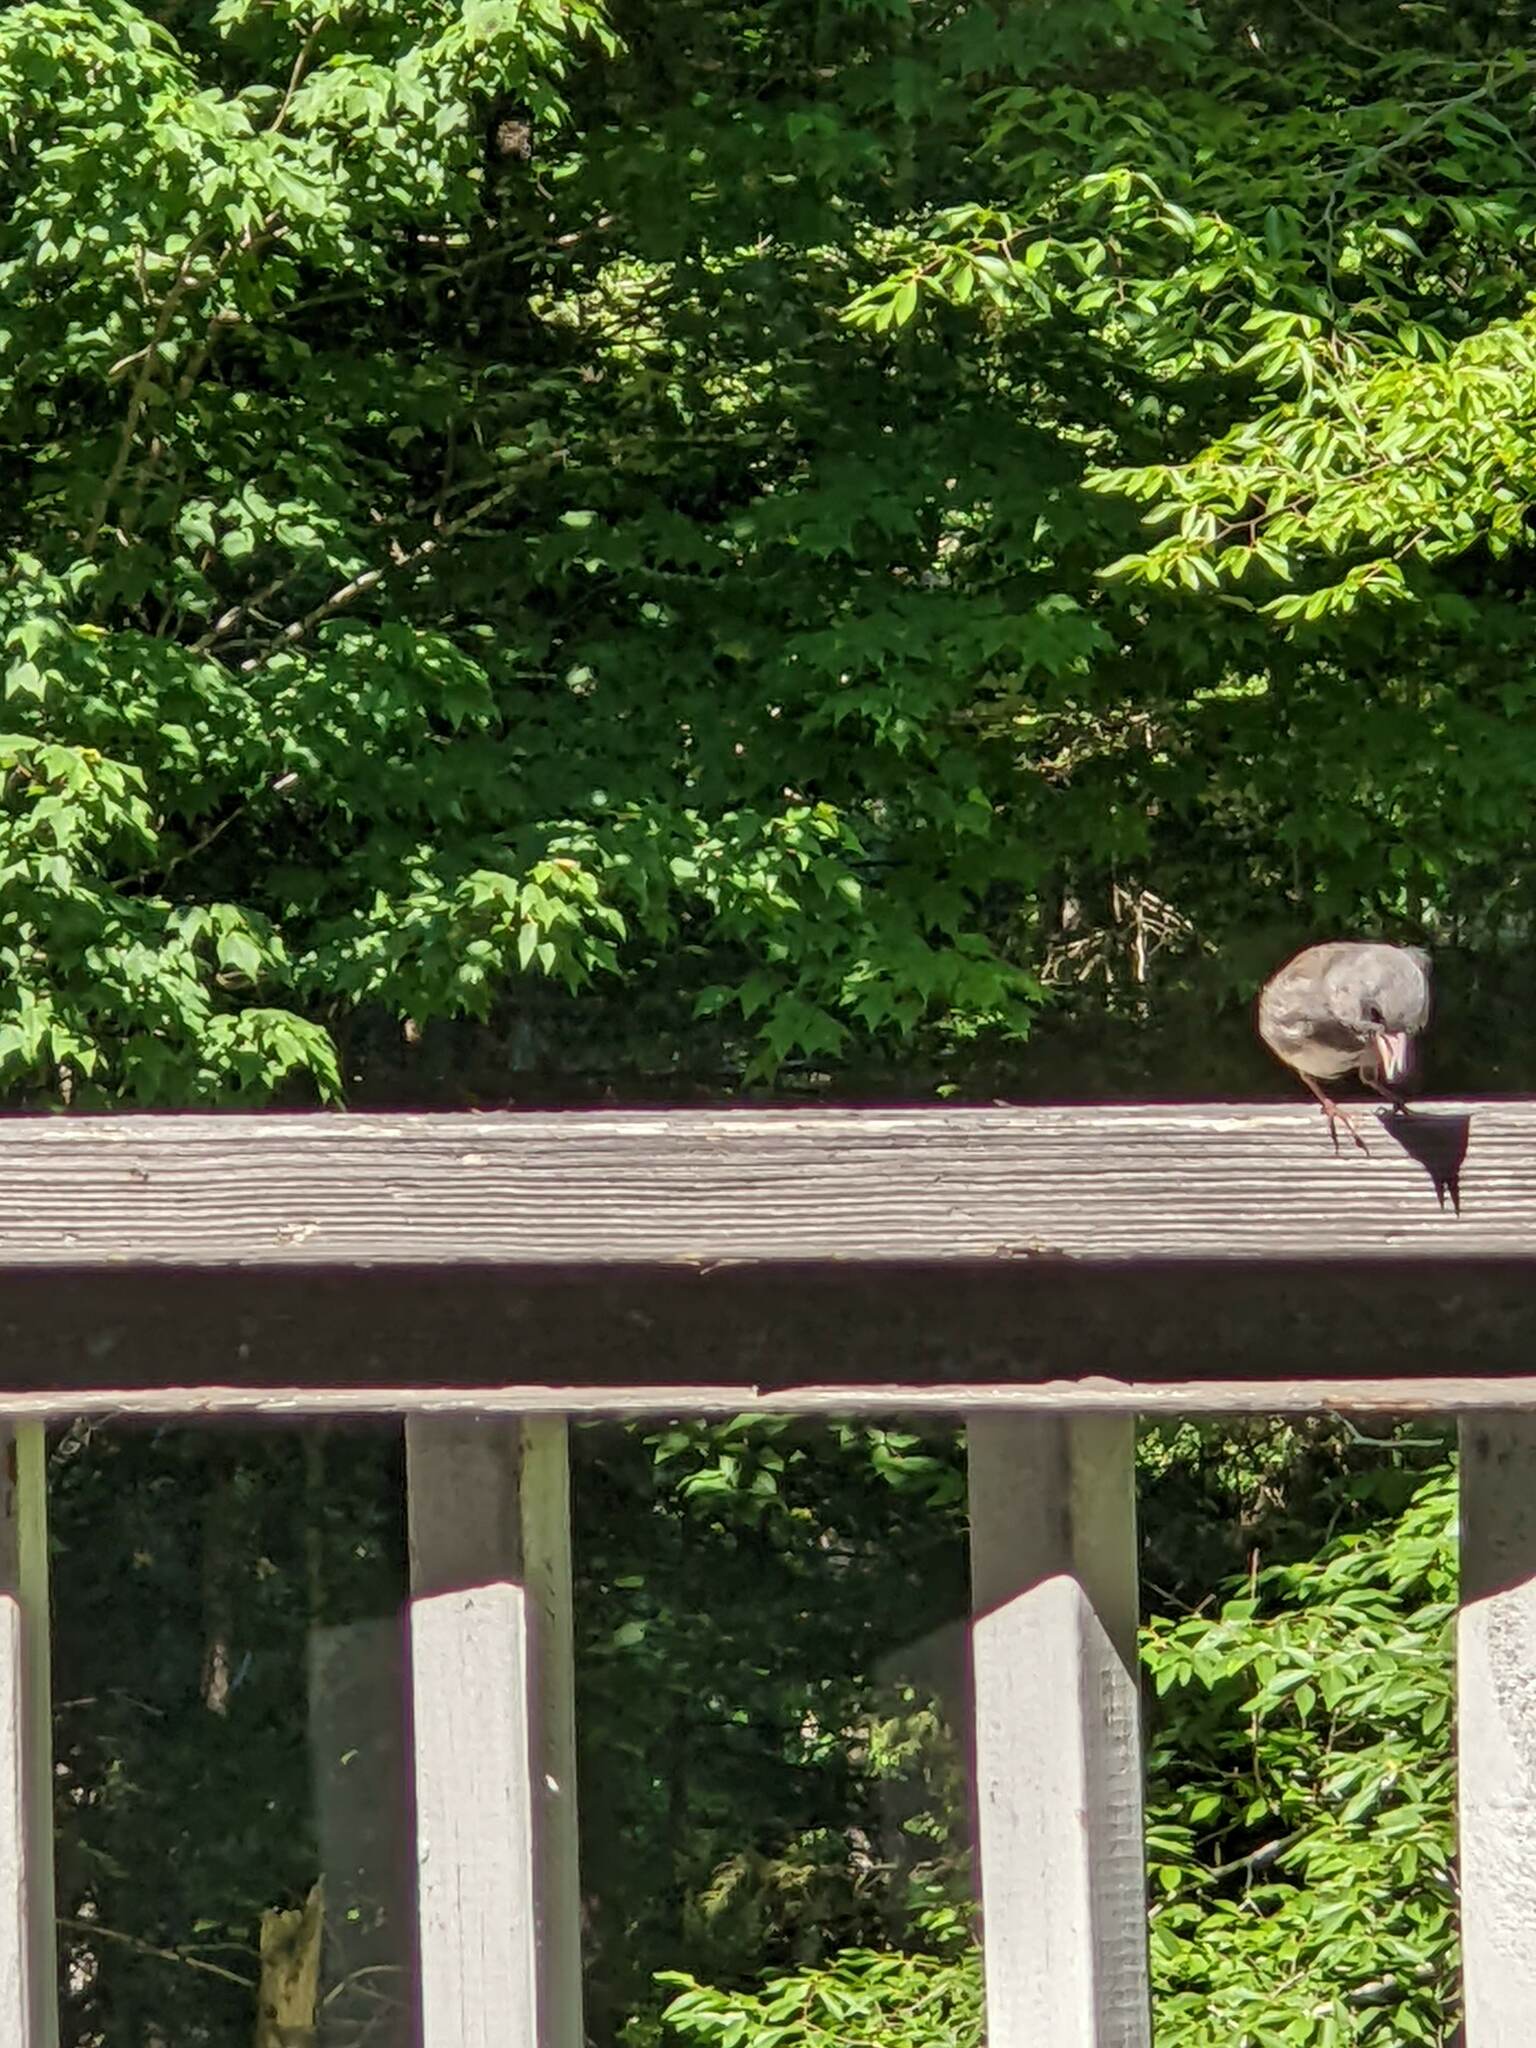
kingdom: Animalia
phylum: Chordata
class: Aves
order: Passeriformes
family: Passerellidae
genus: Junco
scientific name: Junco hyemalis
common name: Dark-eyed junco
